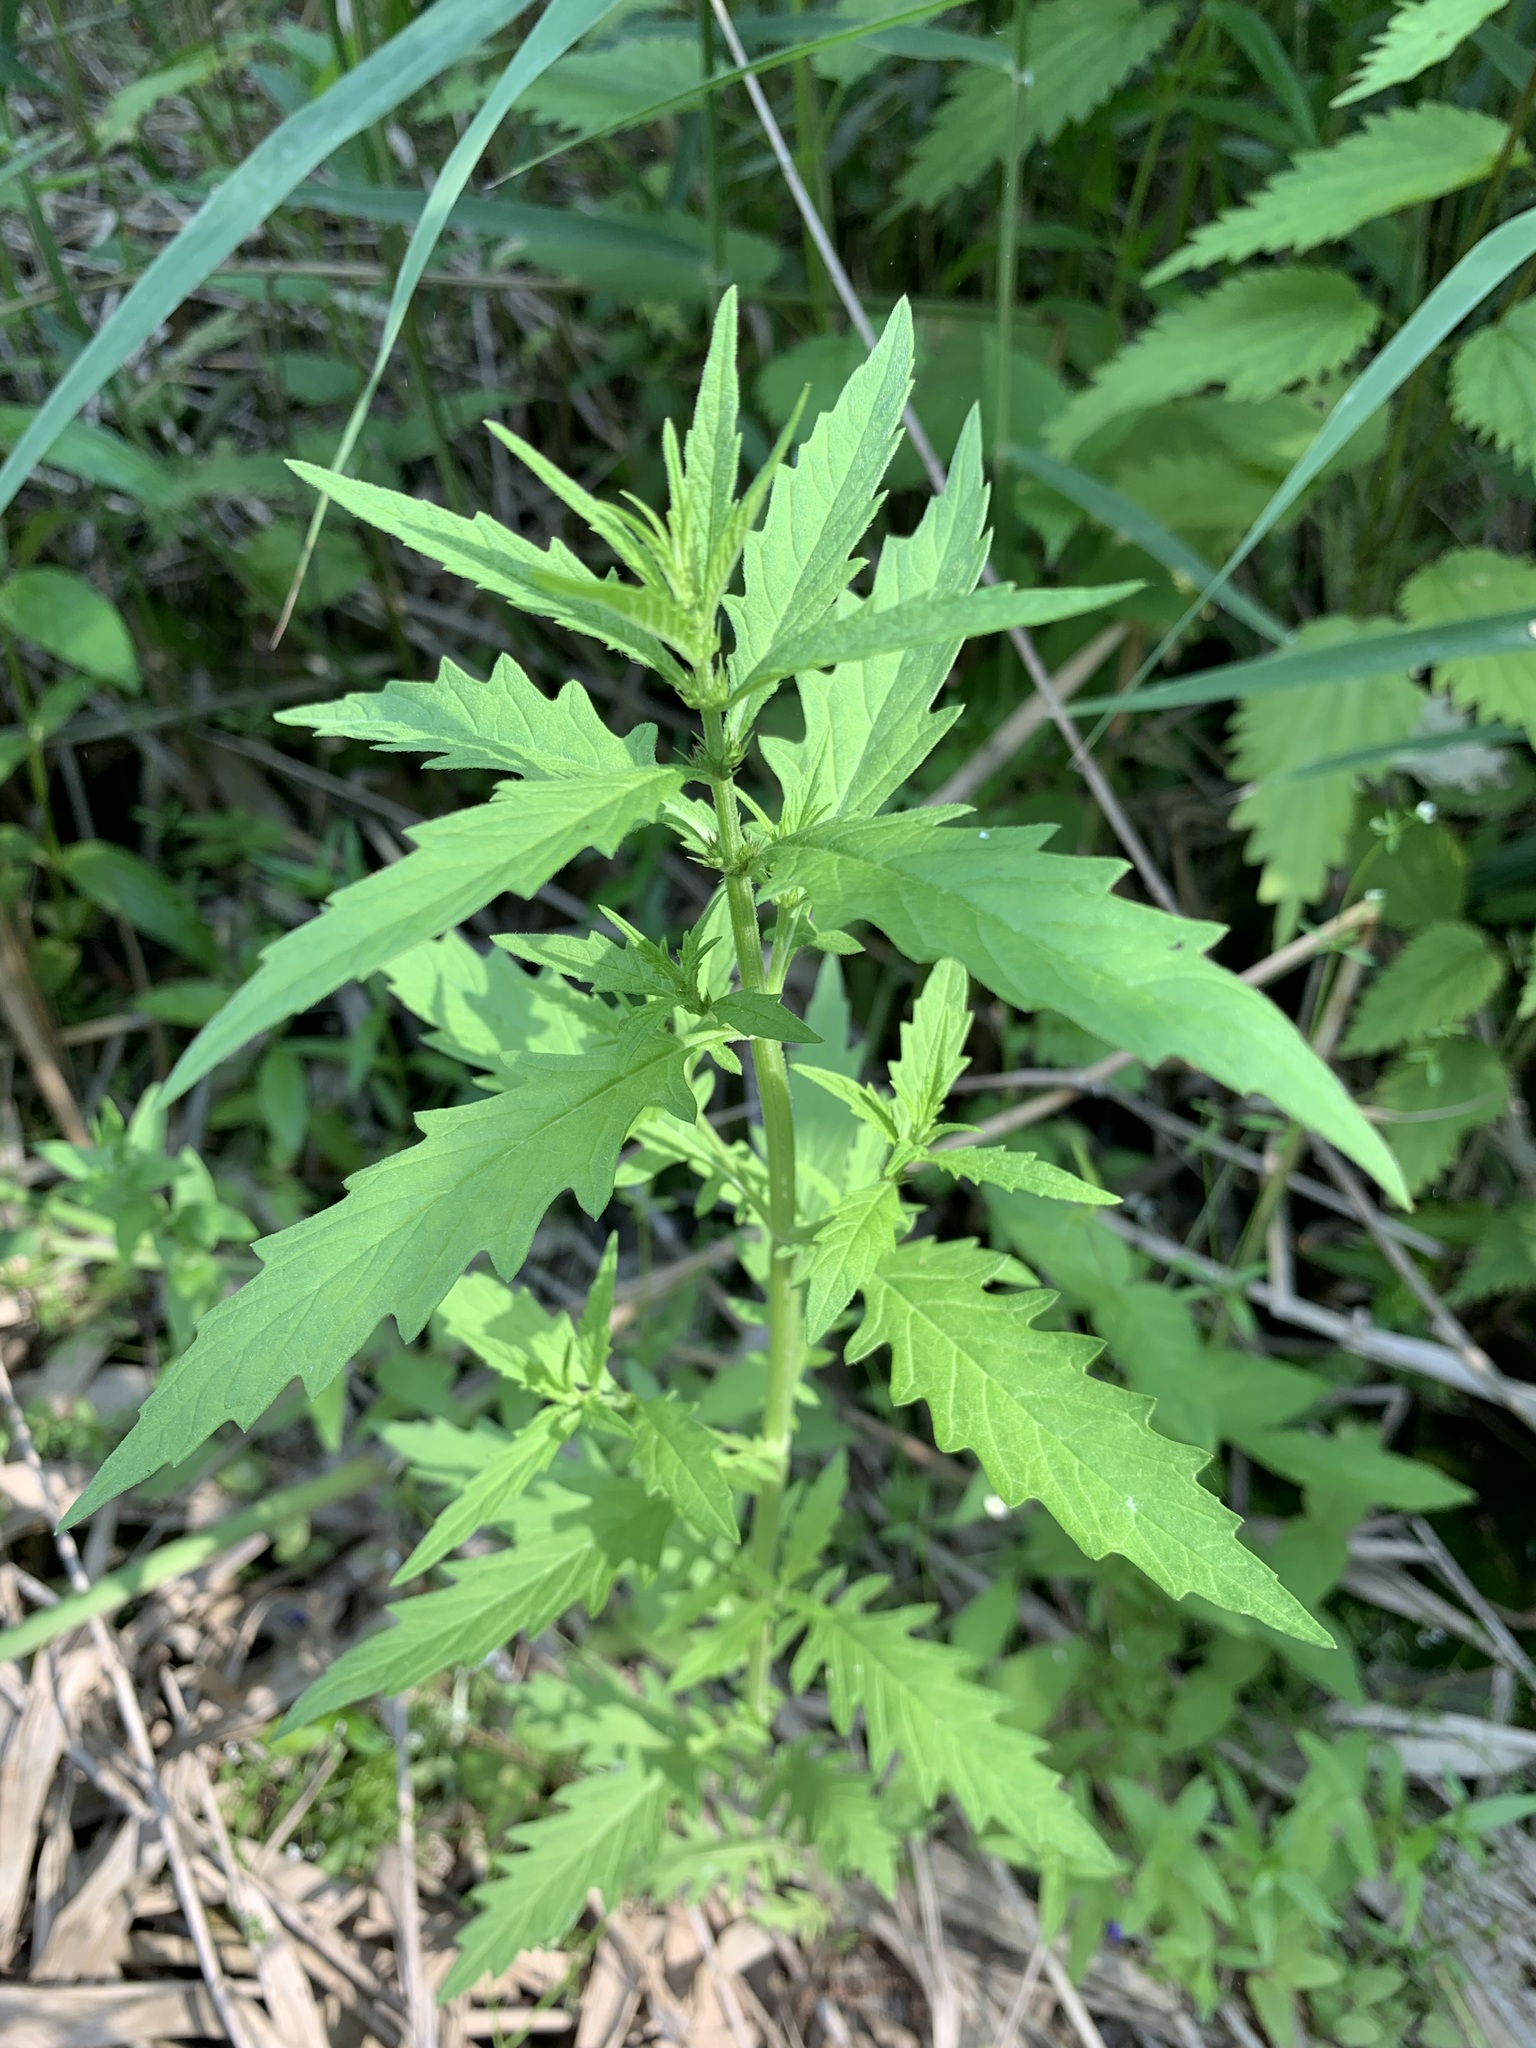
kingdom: Plantae
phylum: Tracheophyta
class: Magnoliopsida
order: Lamiales
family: Lamiaceae
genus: Lycopus
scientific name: Lycopus europaeus
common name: European bugleweed
